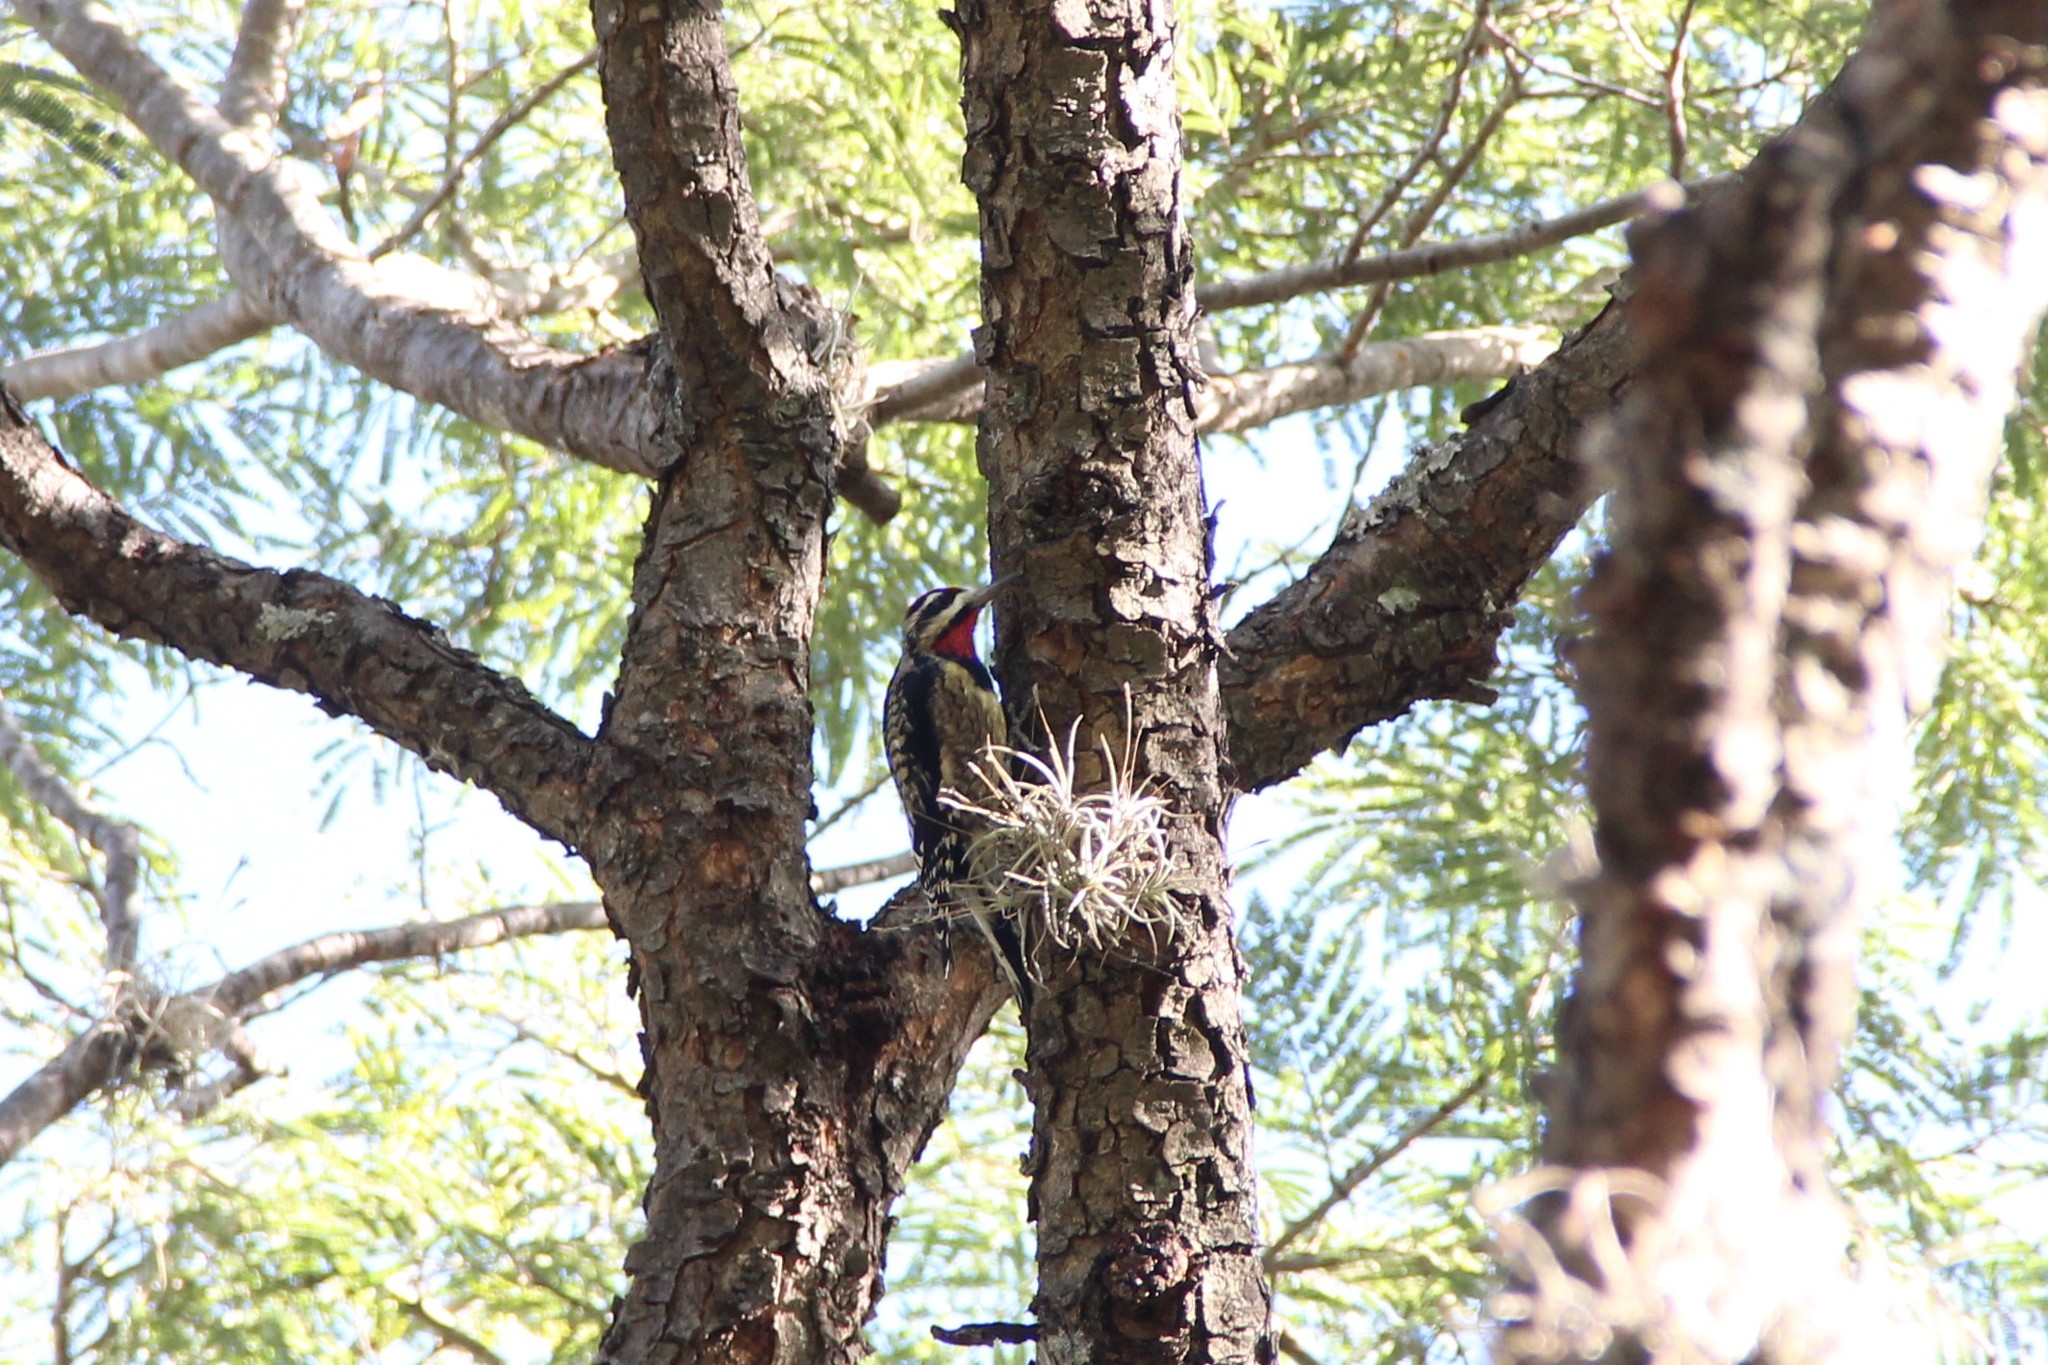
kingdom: Animalia
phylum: Chordata
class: Aves
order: Piciformes
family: Picidae
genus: Sphyrapicus
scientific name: Sphyrapicus varius
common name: Yellow-bellied sapsucker
